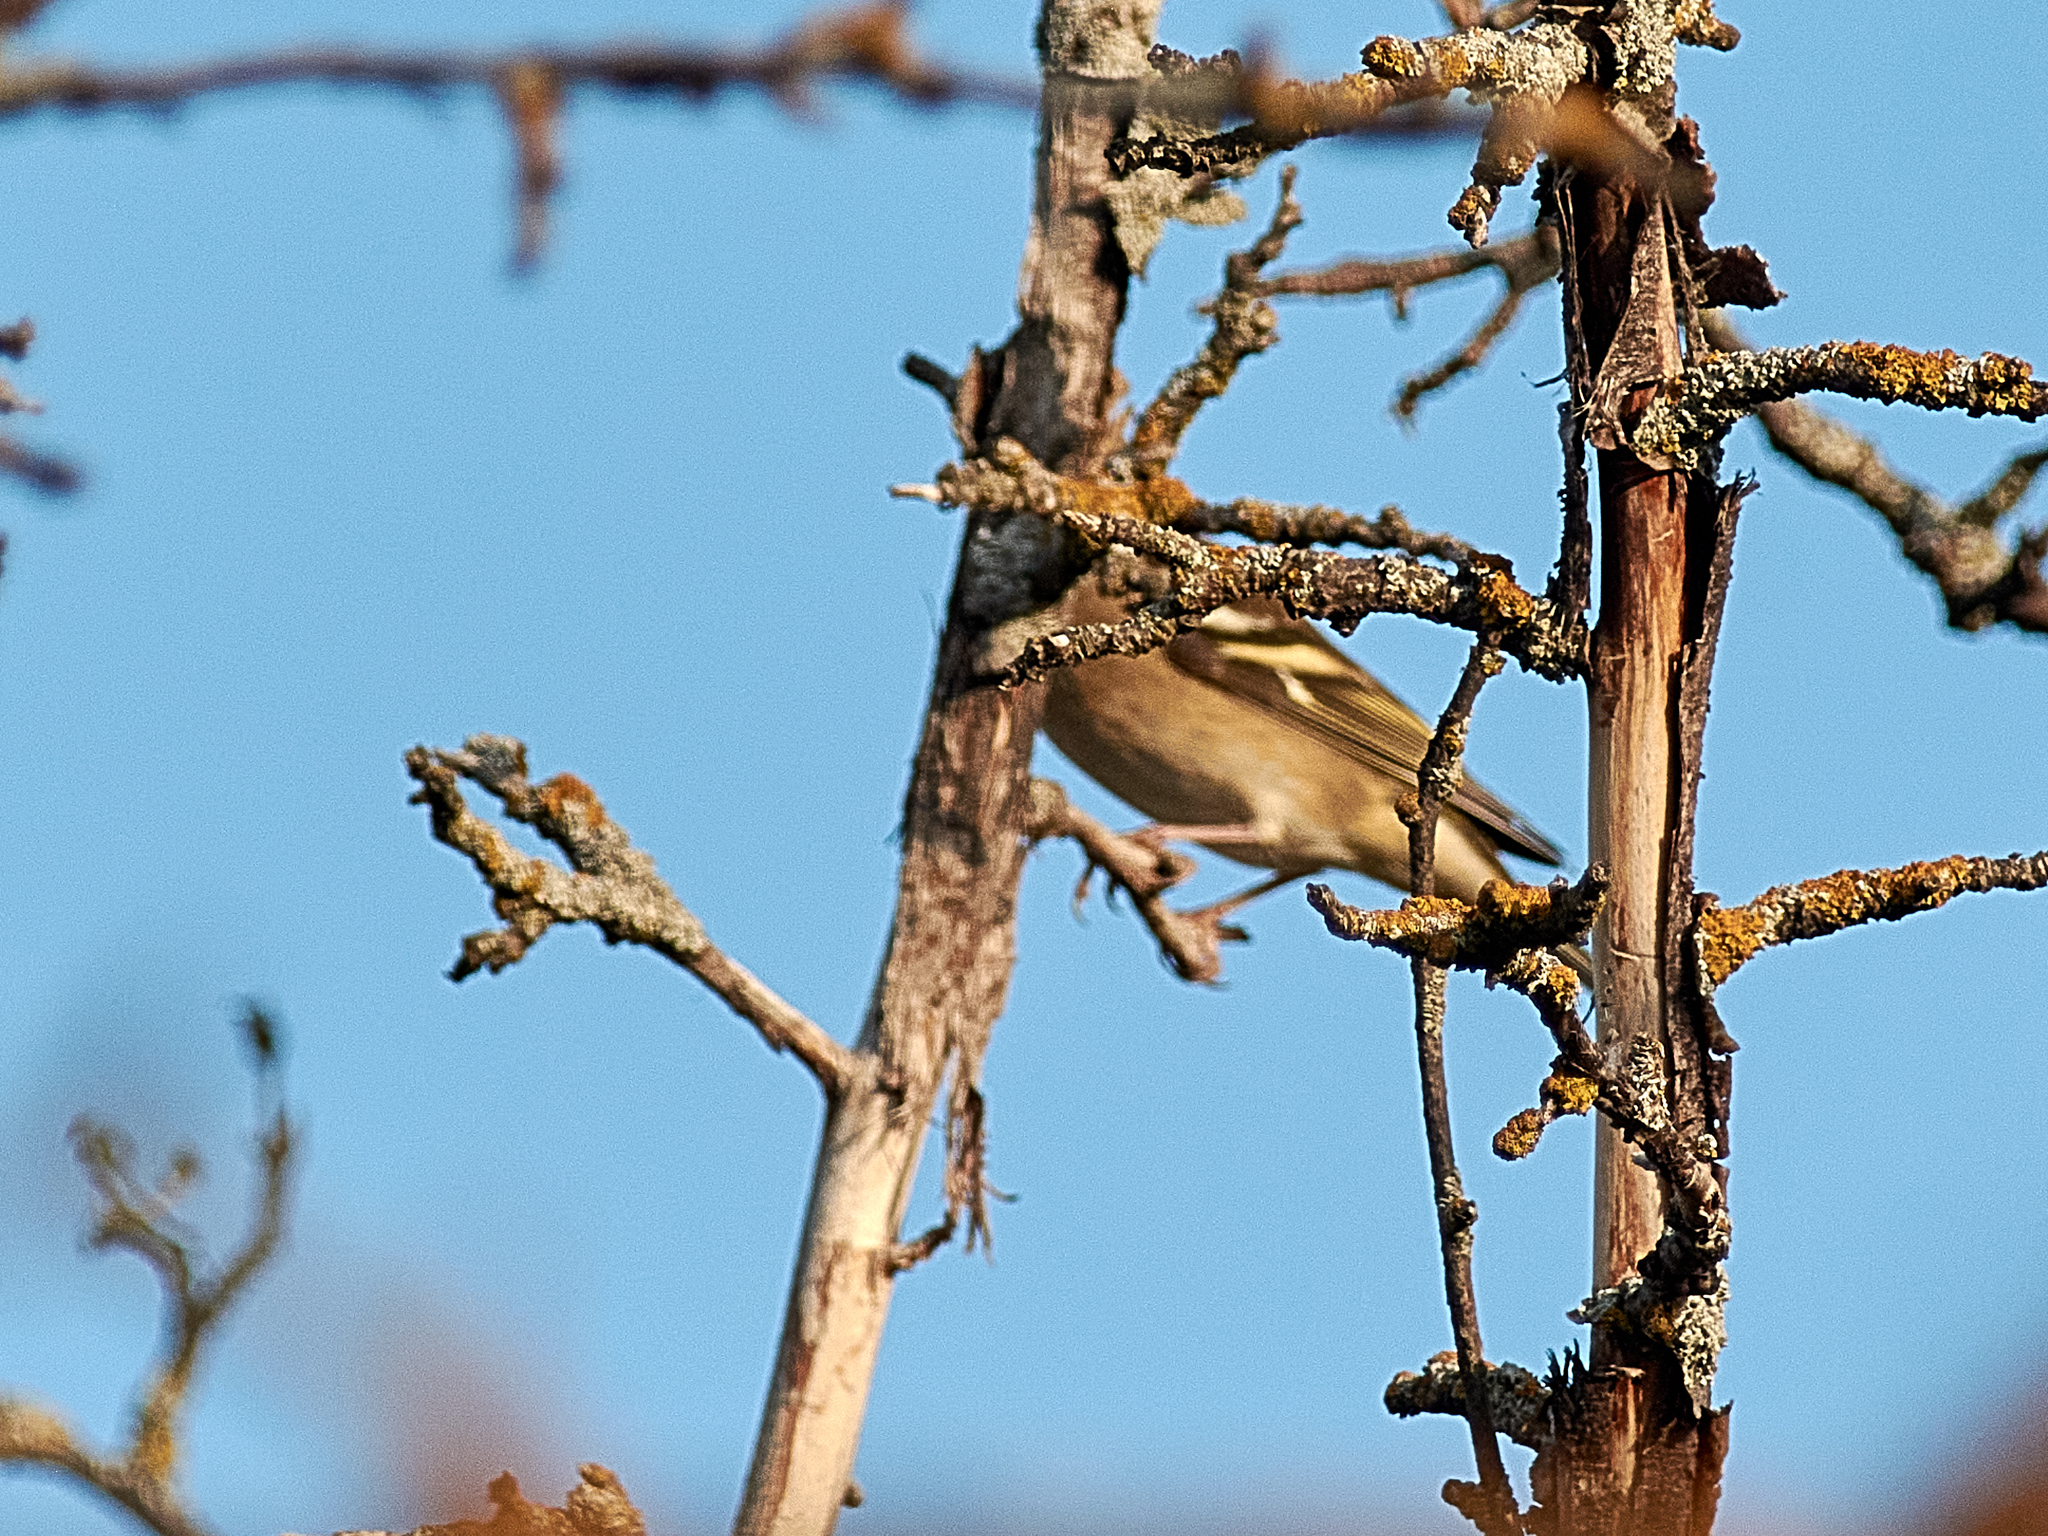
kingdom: Animalia
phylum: Chordata
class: Aves
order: Passeriformes
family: Fringillidae
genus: Fringilla
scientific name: Fringilla coelebs
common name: Common chaffinch
